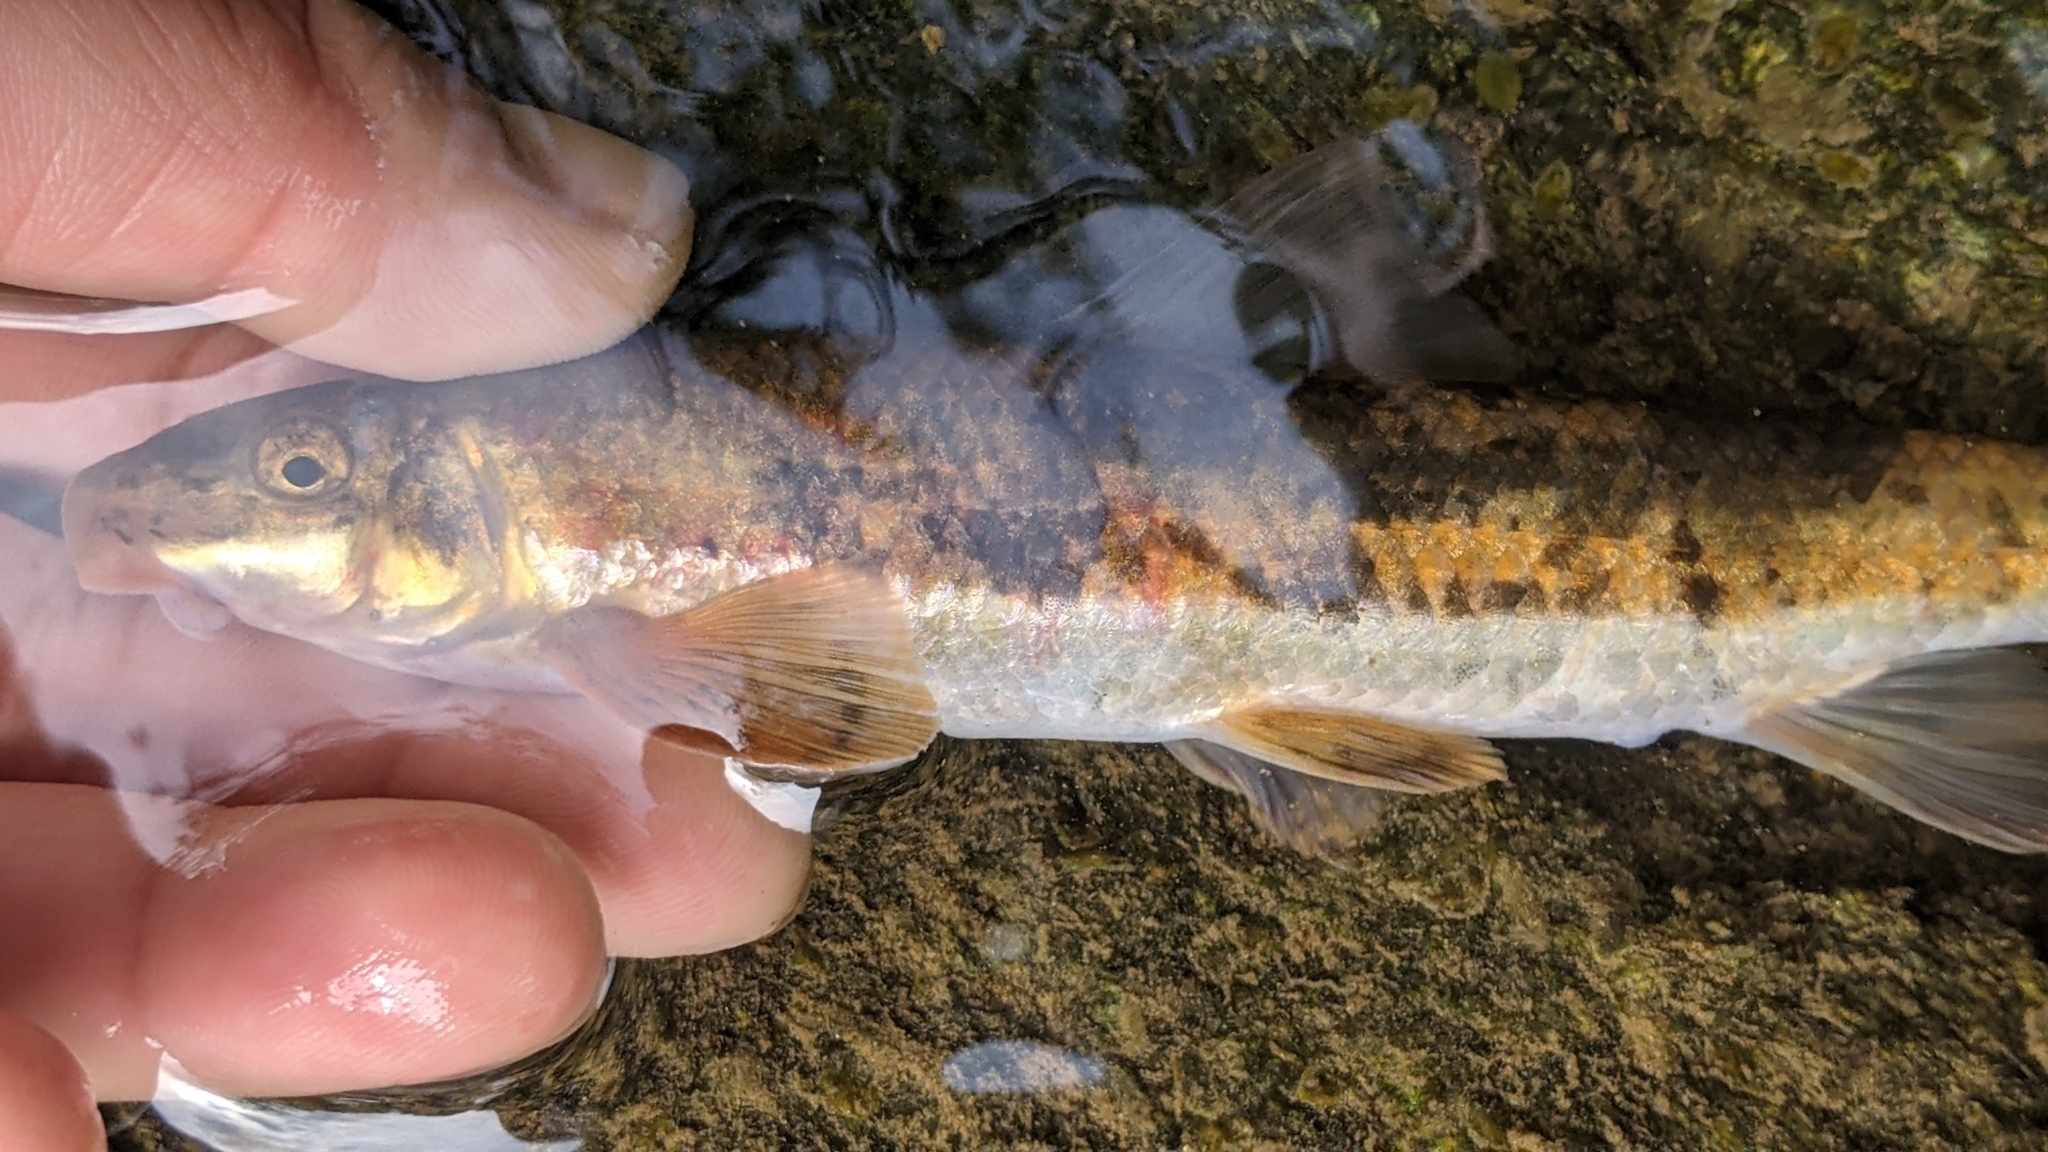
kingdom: Animalia
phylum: Chordata
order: Cypriniformes
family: Catostomidae
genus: Thoburnia
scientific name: Thoburnia rhothoeca
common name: Torrent sucker
